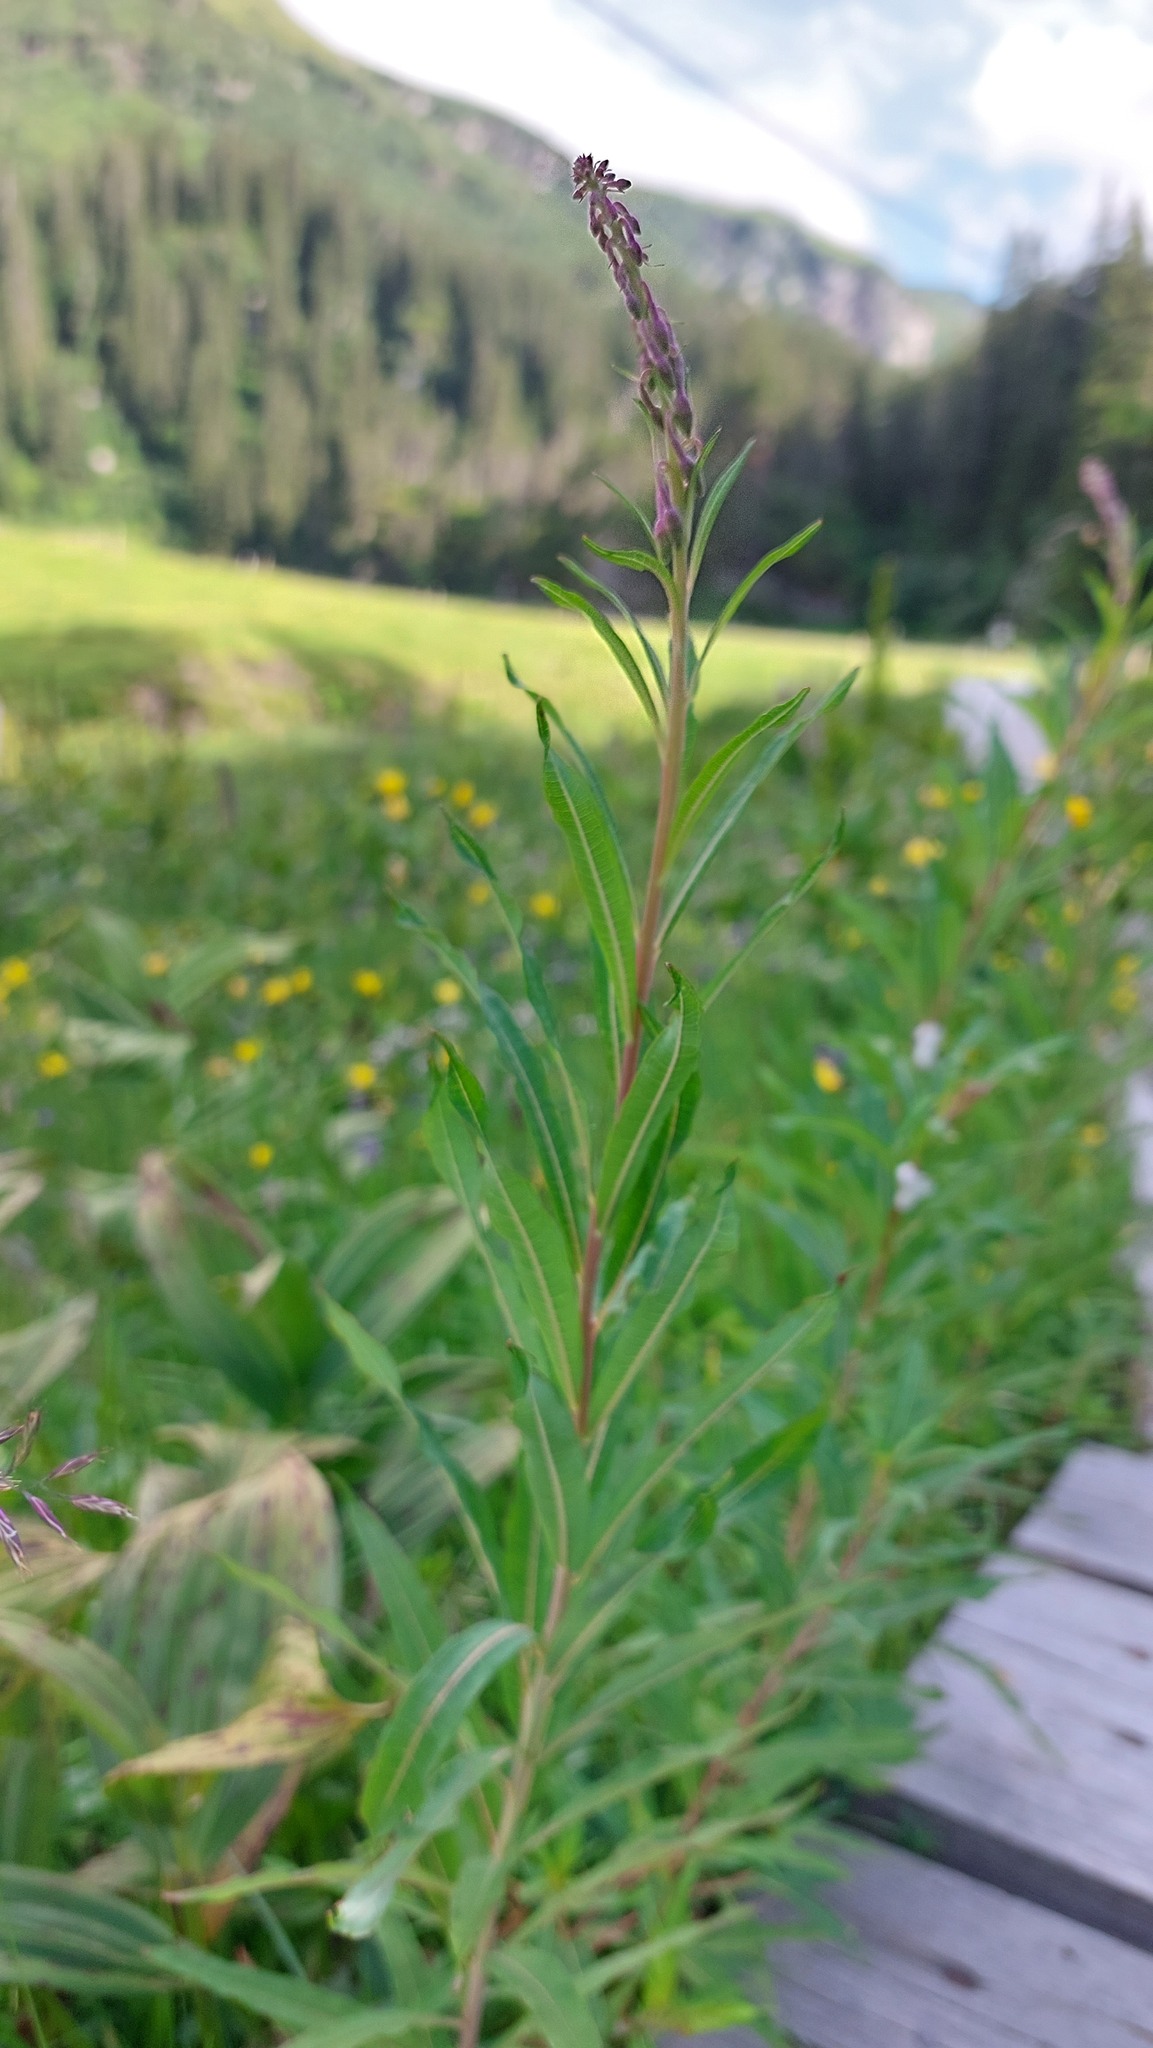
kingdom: Plantae
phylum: Tracheophyta
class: Magnoliopsida
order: Myrtales
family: Onagraceae
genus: Chamaenerion
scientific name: Chamaenerion angustifolium
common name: Fireweed
